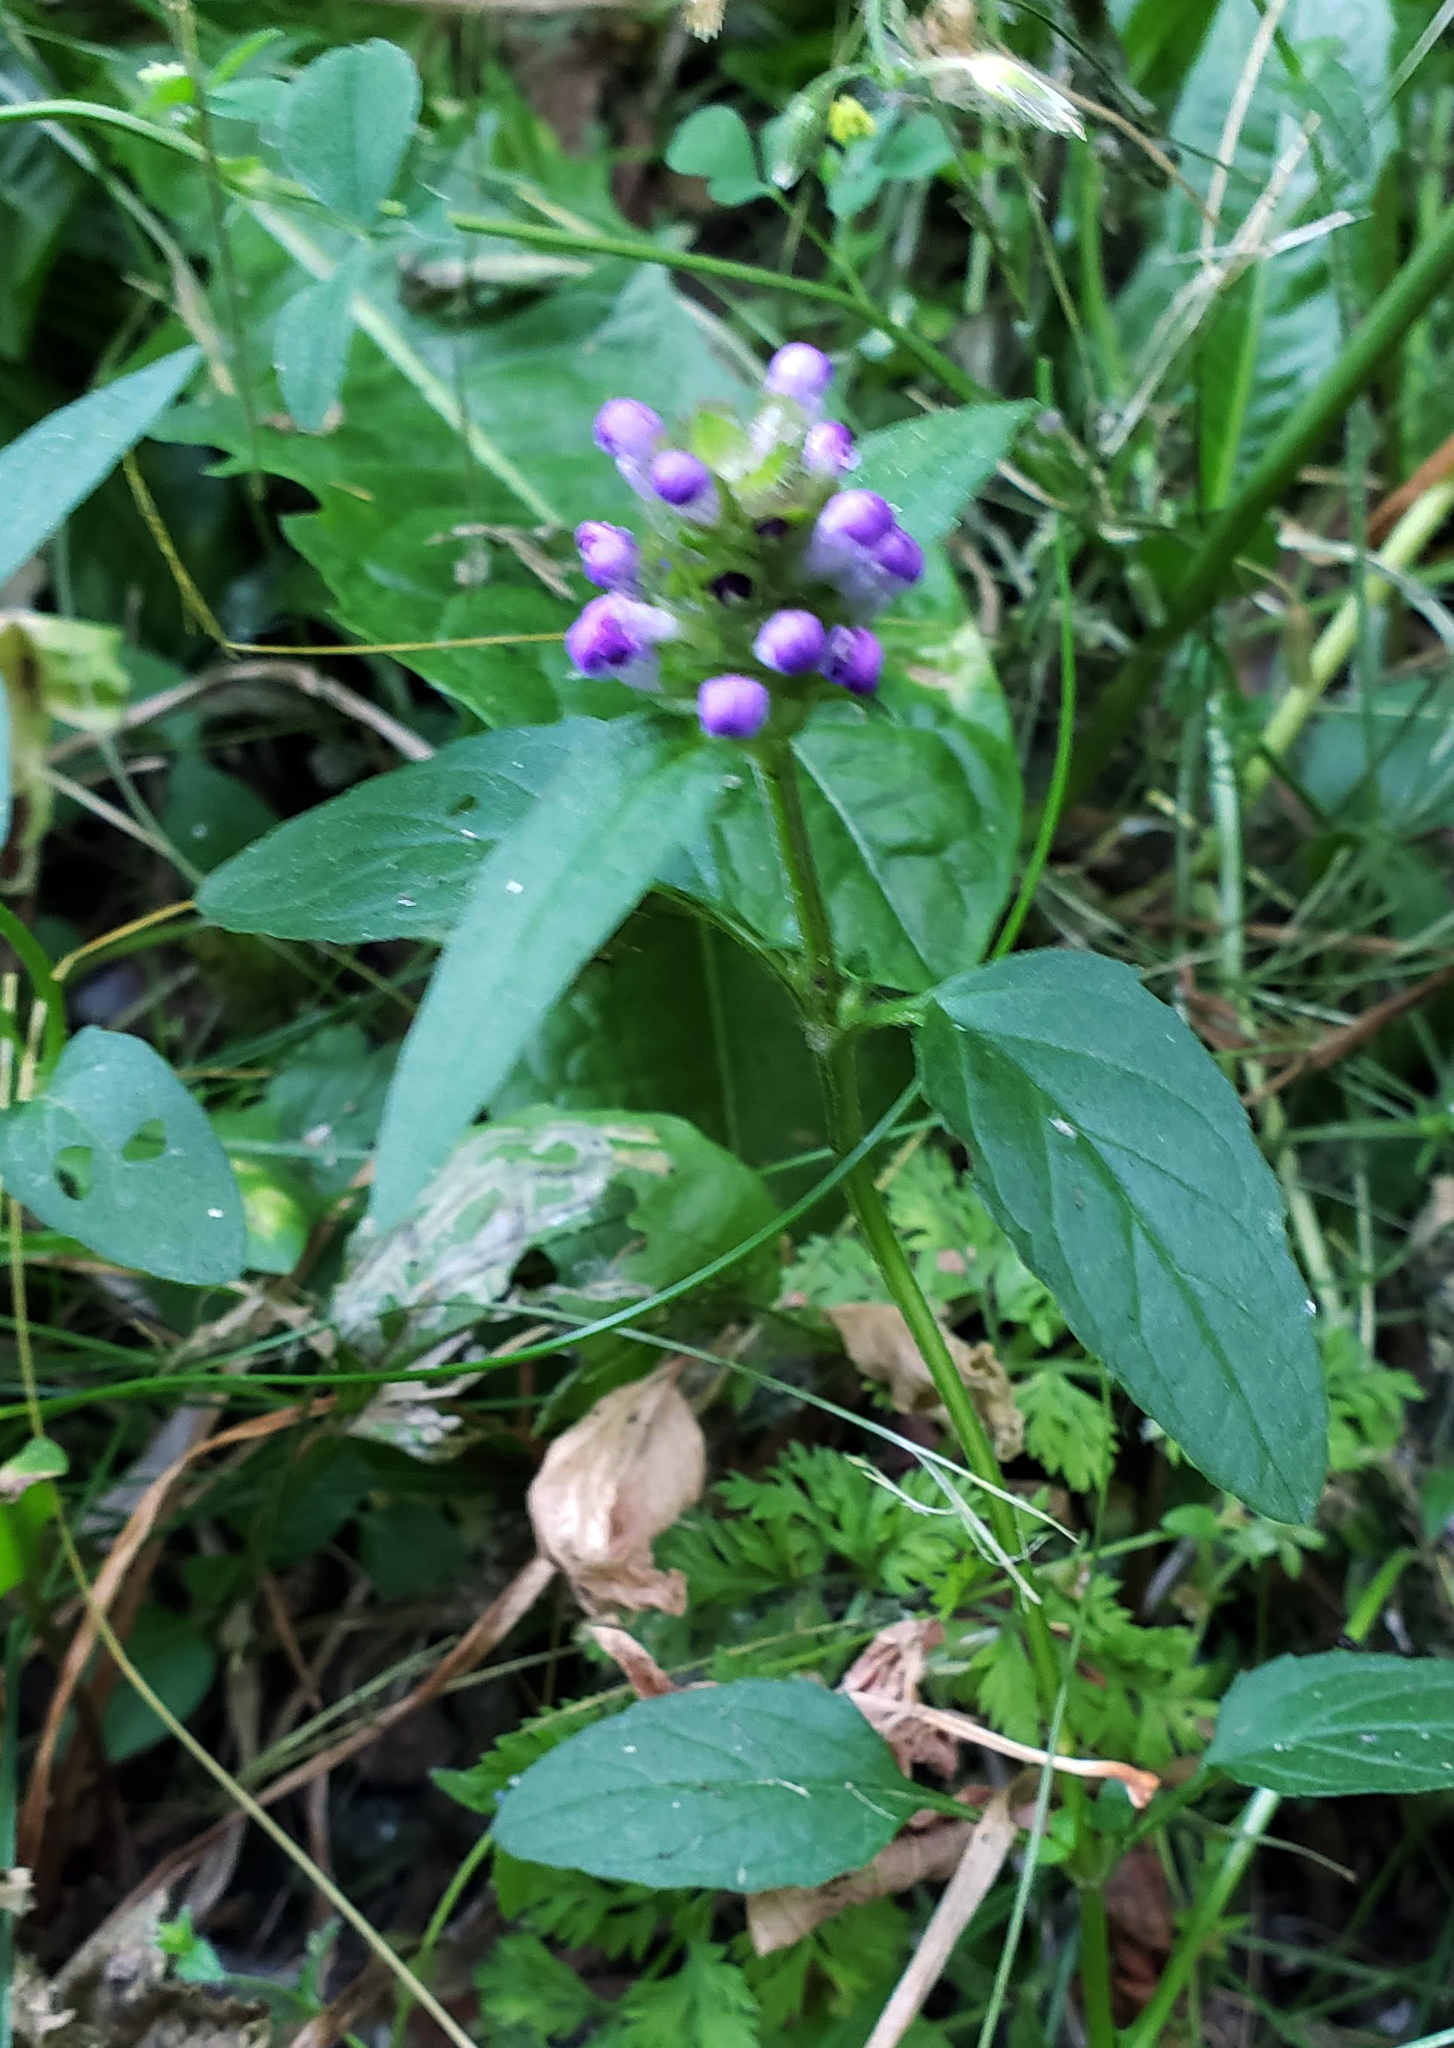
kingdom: Plantae
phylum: Tracheophyta
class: Magnoliopsida
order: Lamiales
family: Lamiaceae
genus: Prunella
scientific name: Prunella vulgaris
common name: Heal-all
